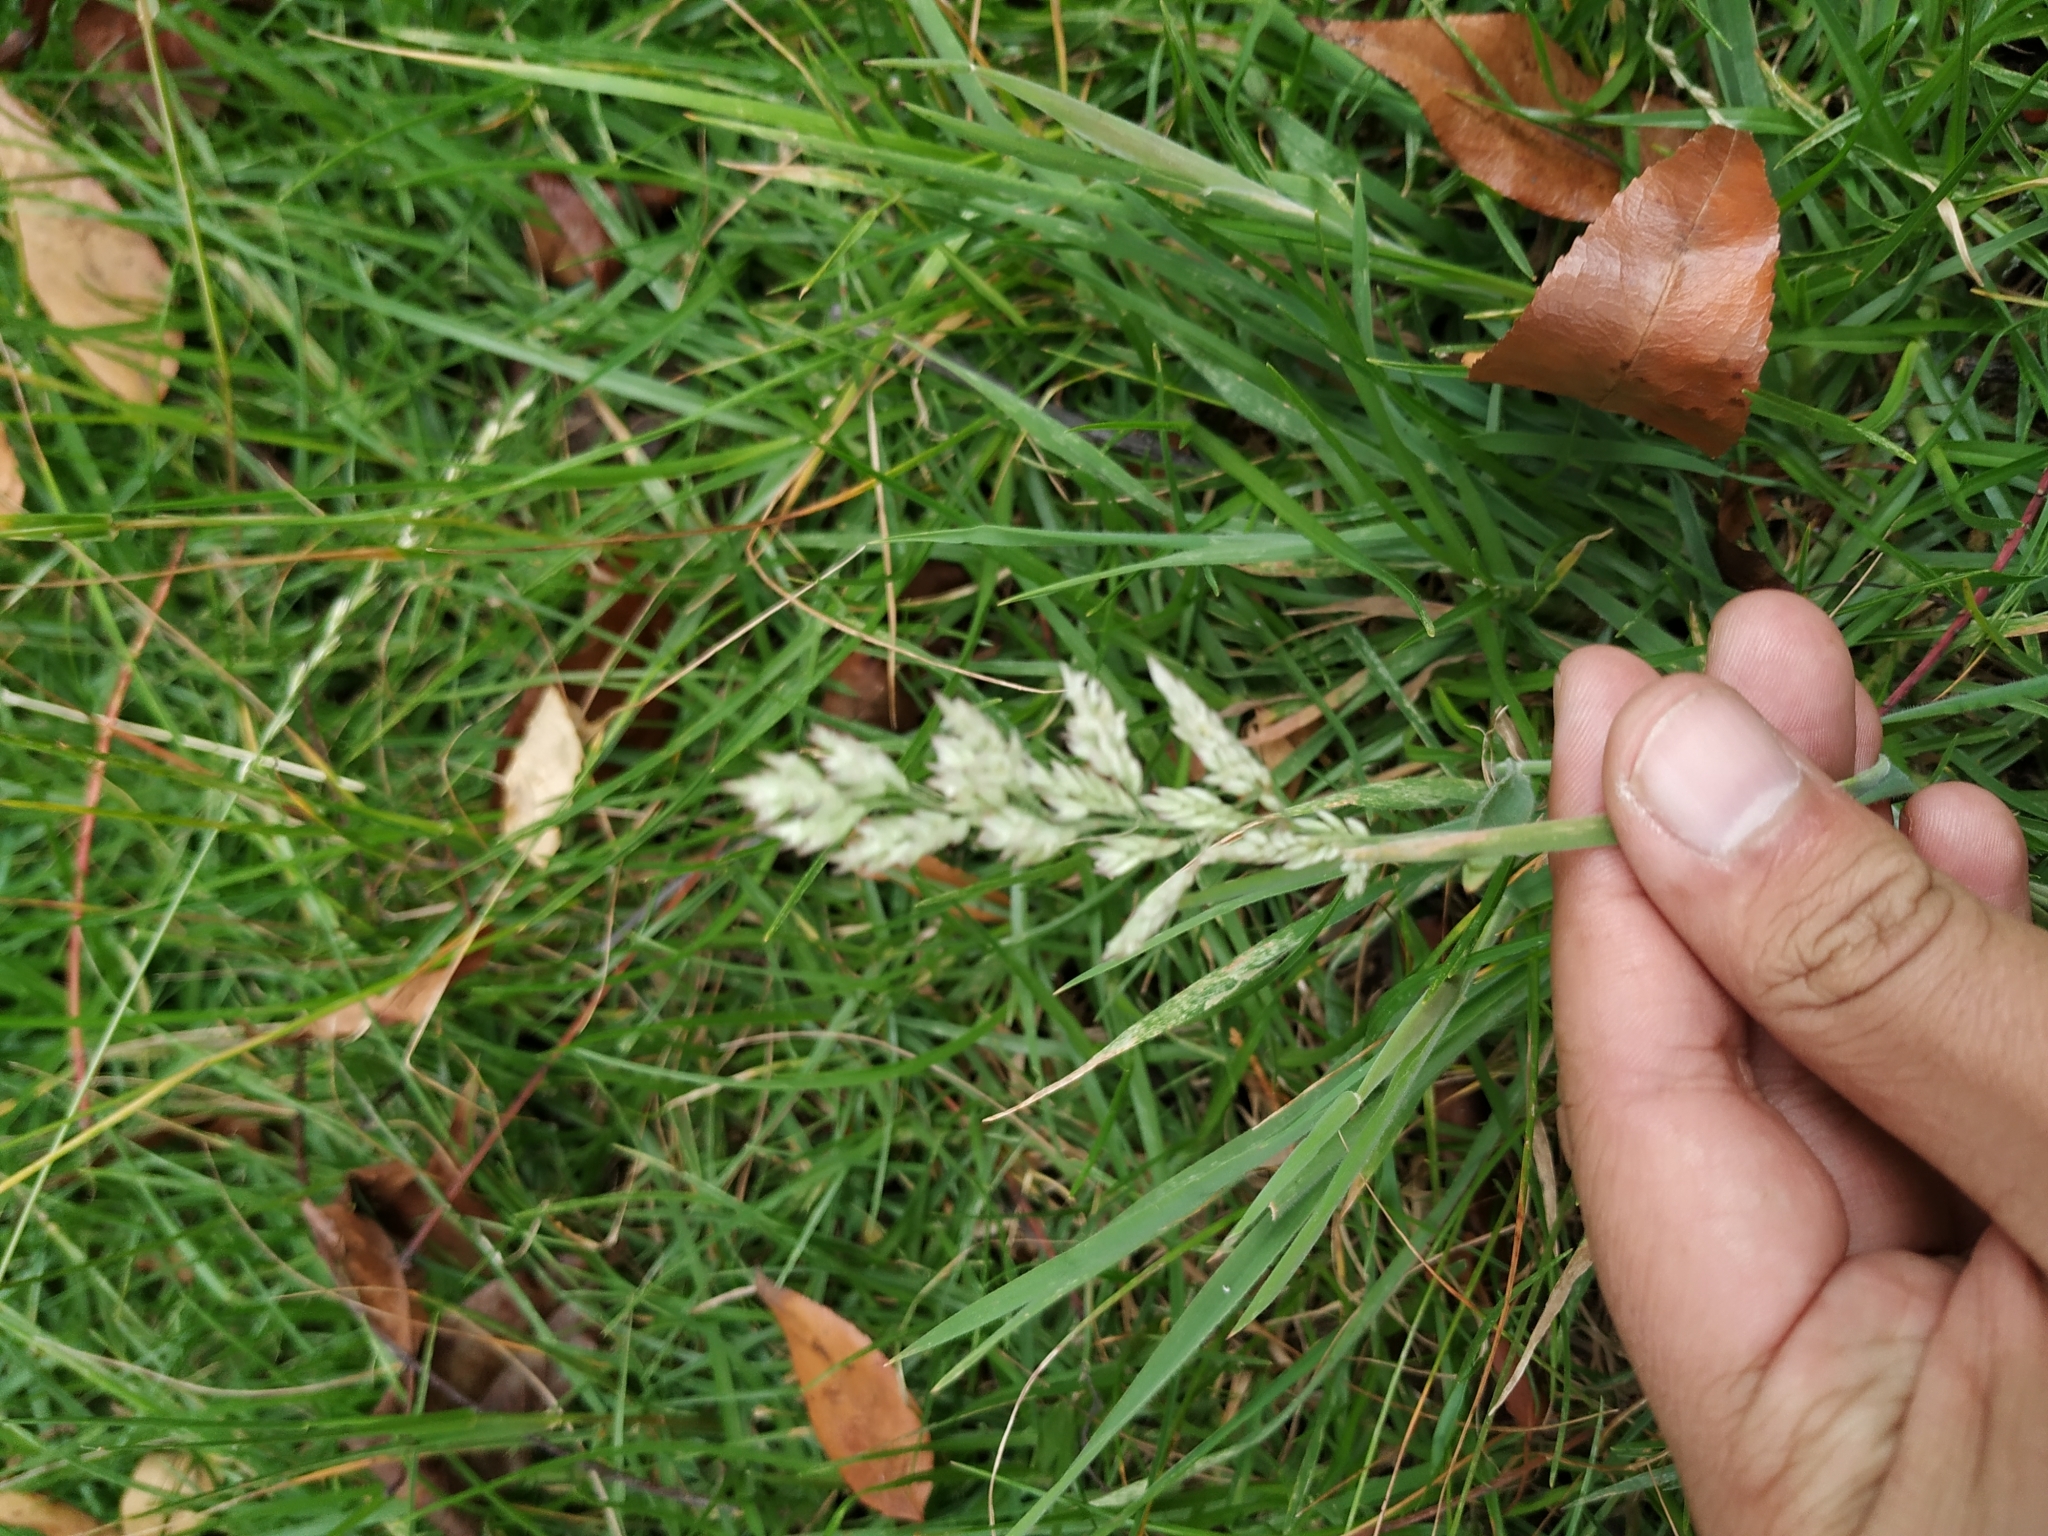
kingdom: Plantae
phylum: Tracheophyta
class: Liliopsida
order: Poales
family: Poaceae
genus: Holcus
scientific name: Holcus lanatus
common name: Yorkshire-fog
